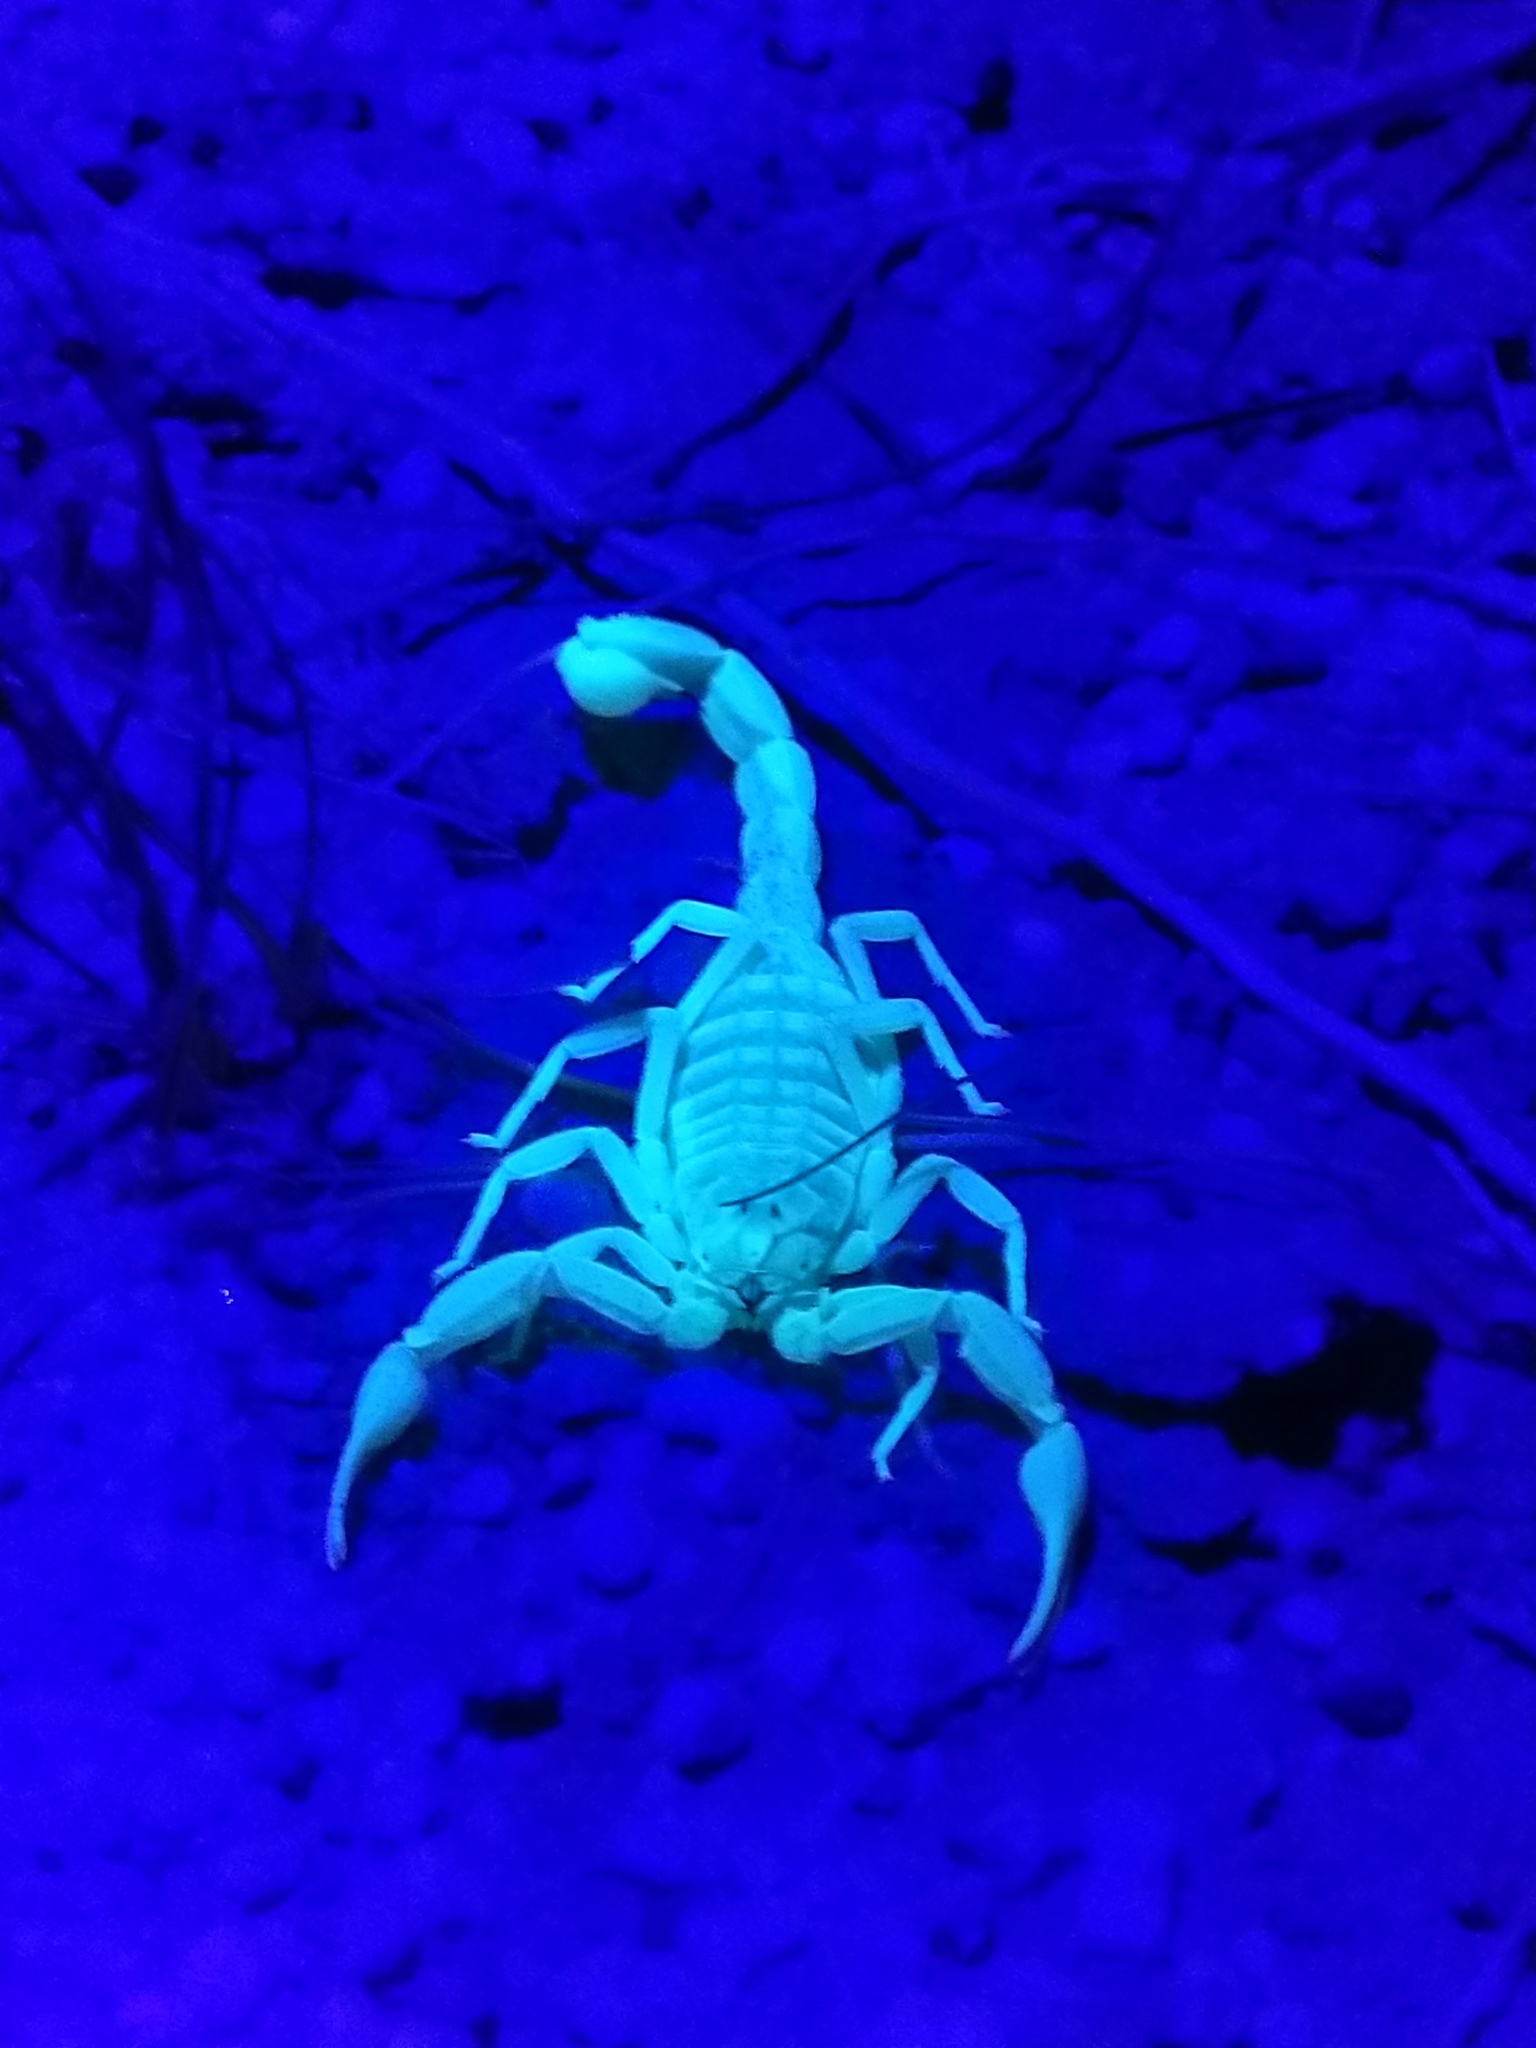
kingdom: Animalia
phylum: Arthropoda
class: Arachnida
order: Scorpiones
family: Buthidae
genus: Compsobuthus
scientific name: Compsobuthus kaftani
